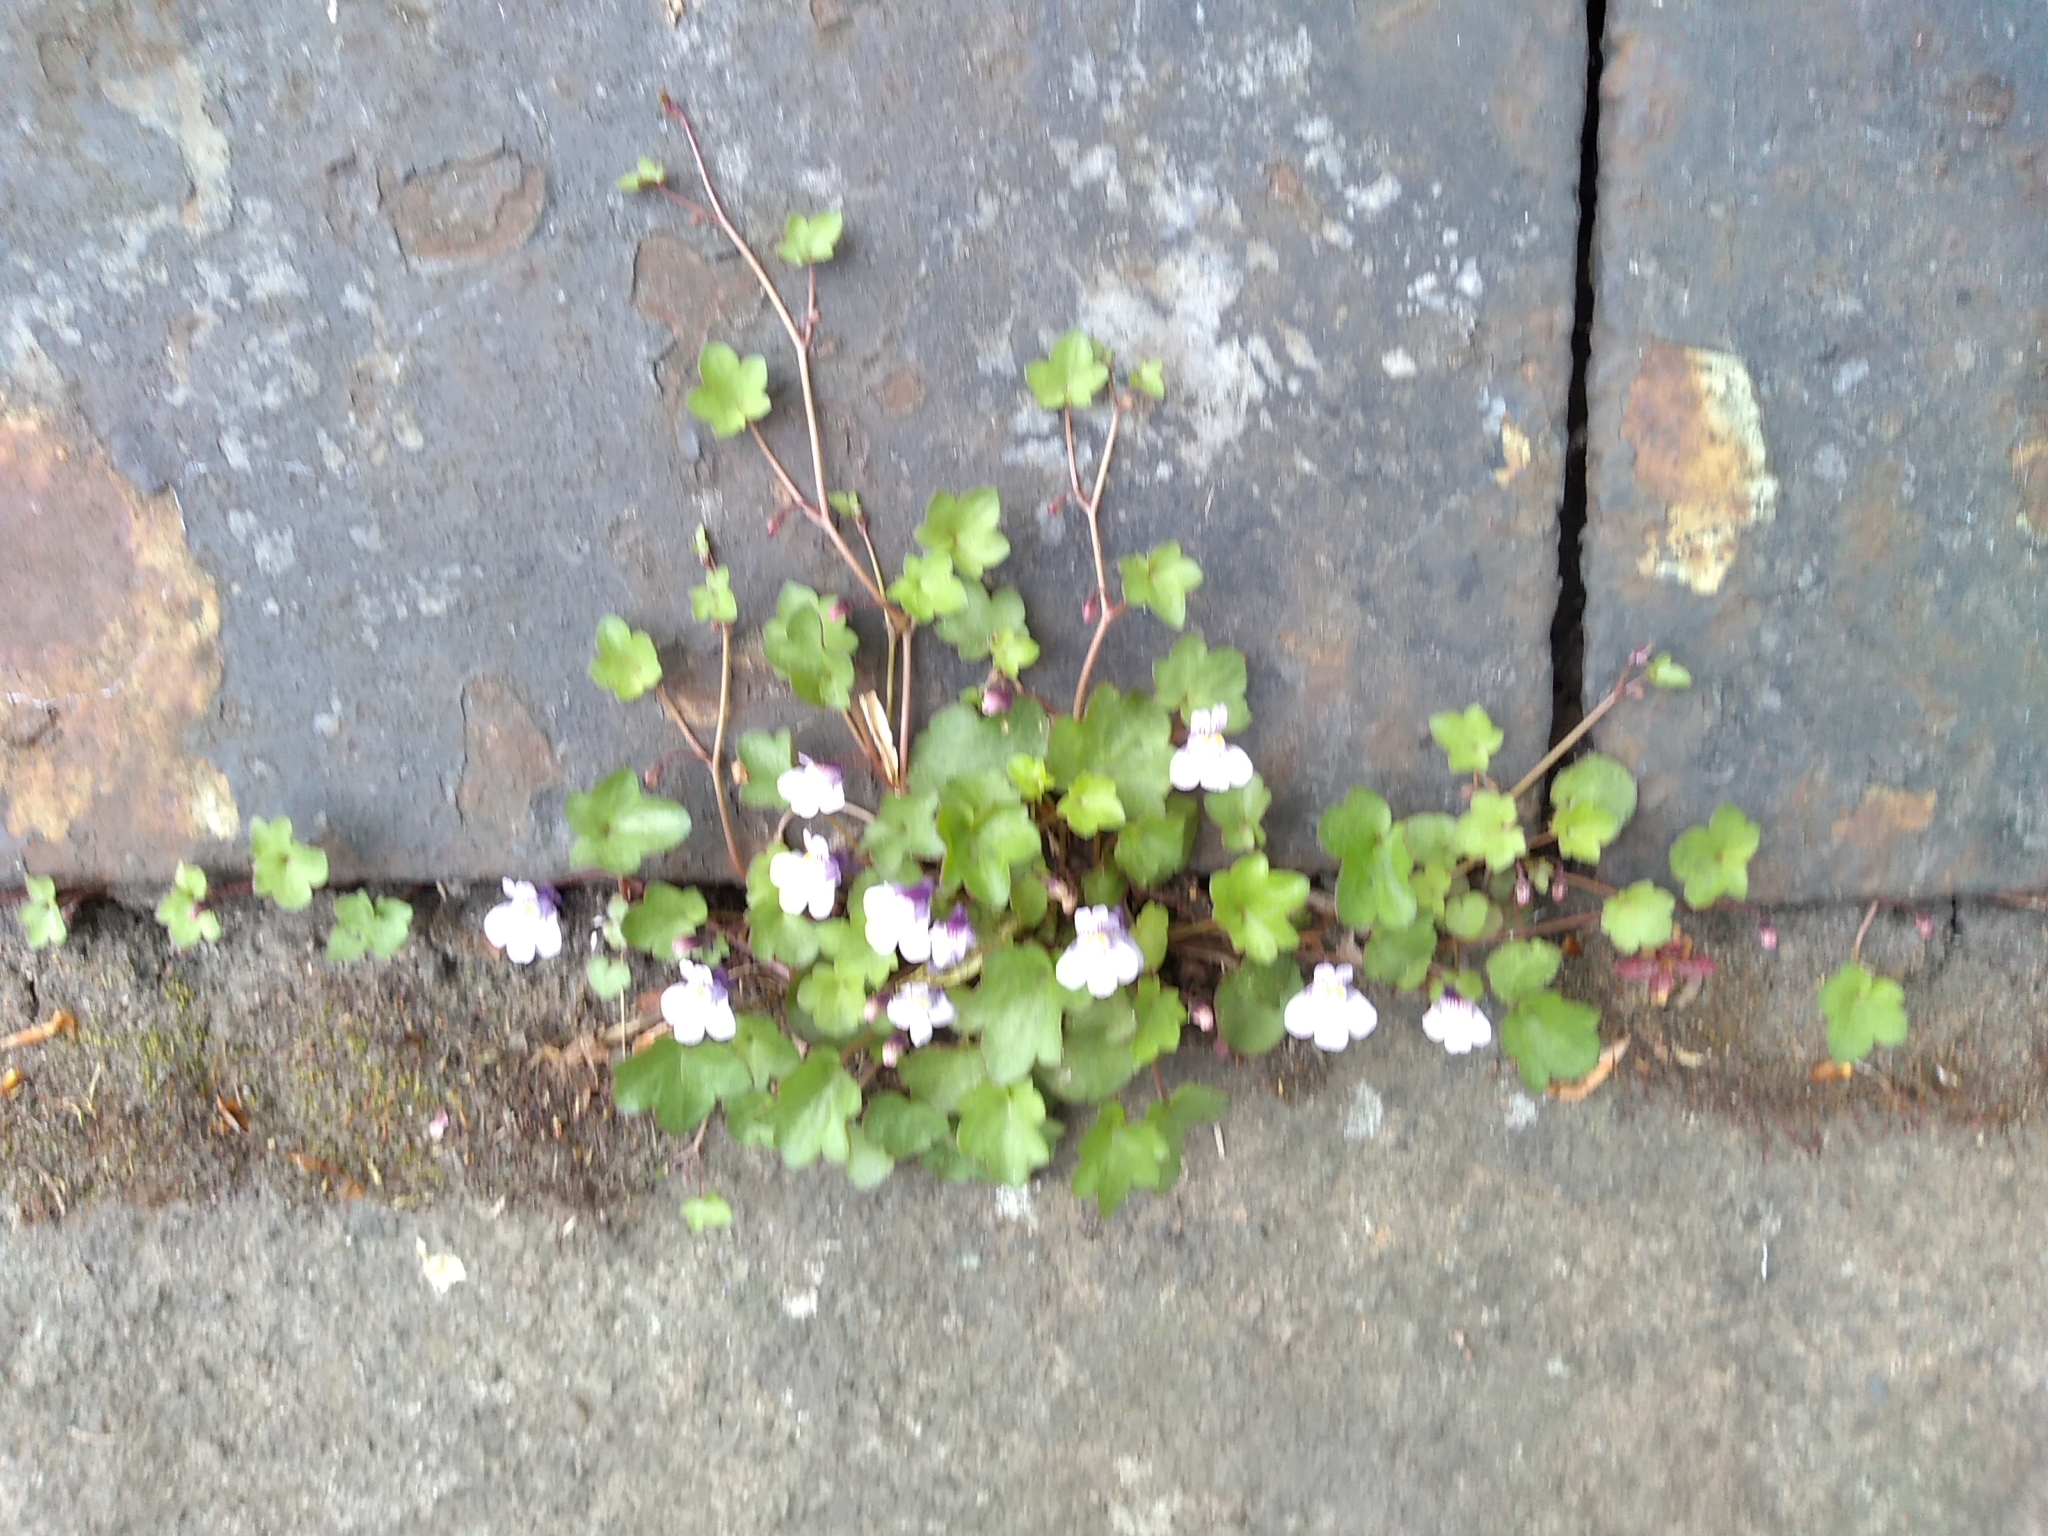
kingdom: Plantae
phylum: Tracheophyta
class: Magnoliopsida
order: Lamiales
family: Plantaginaceae
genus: Cymbalaria
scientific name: Cymbalaria muralis
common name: Ivy-leaved toadflax
